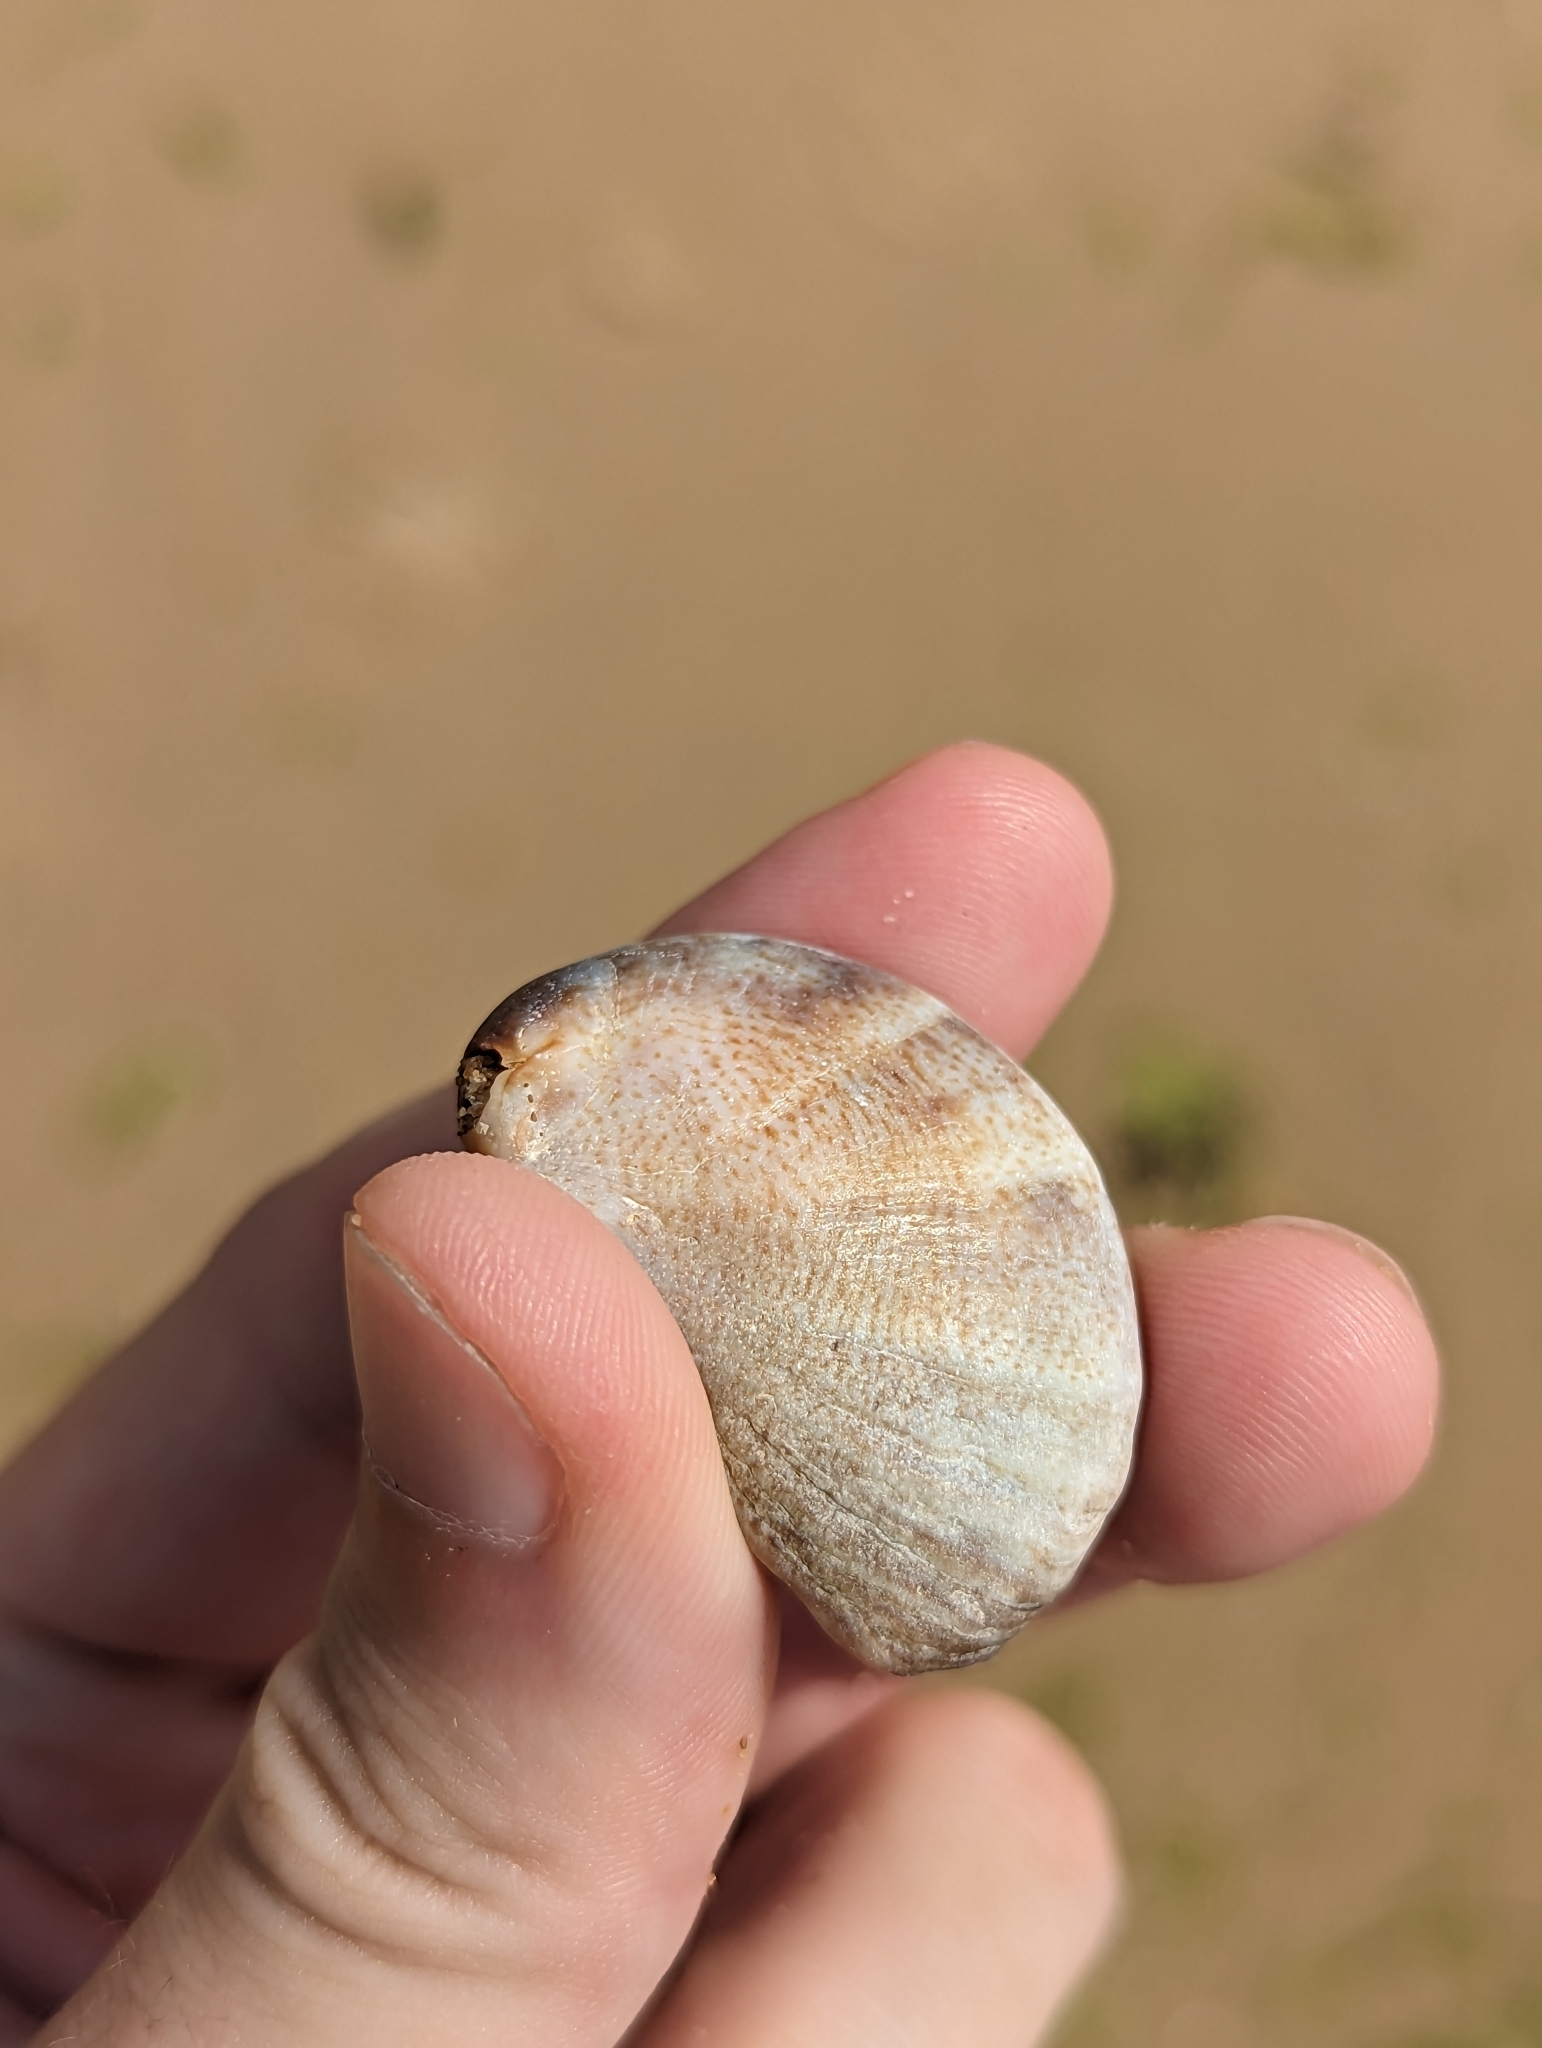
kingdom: Animalia
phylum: Mollusca
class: Gastropoda
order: Littorinimorpha
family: Calyptraeidae
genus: Crepidula
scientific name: Crepidula fornicata
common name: Slipper limpet
